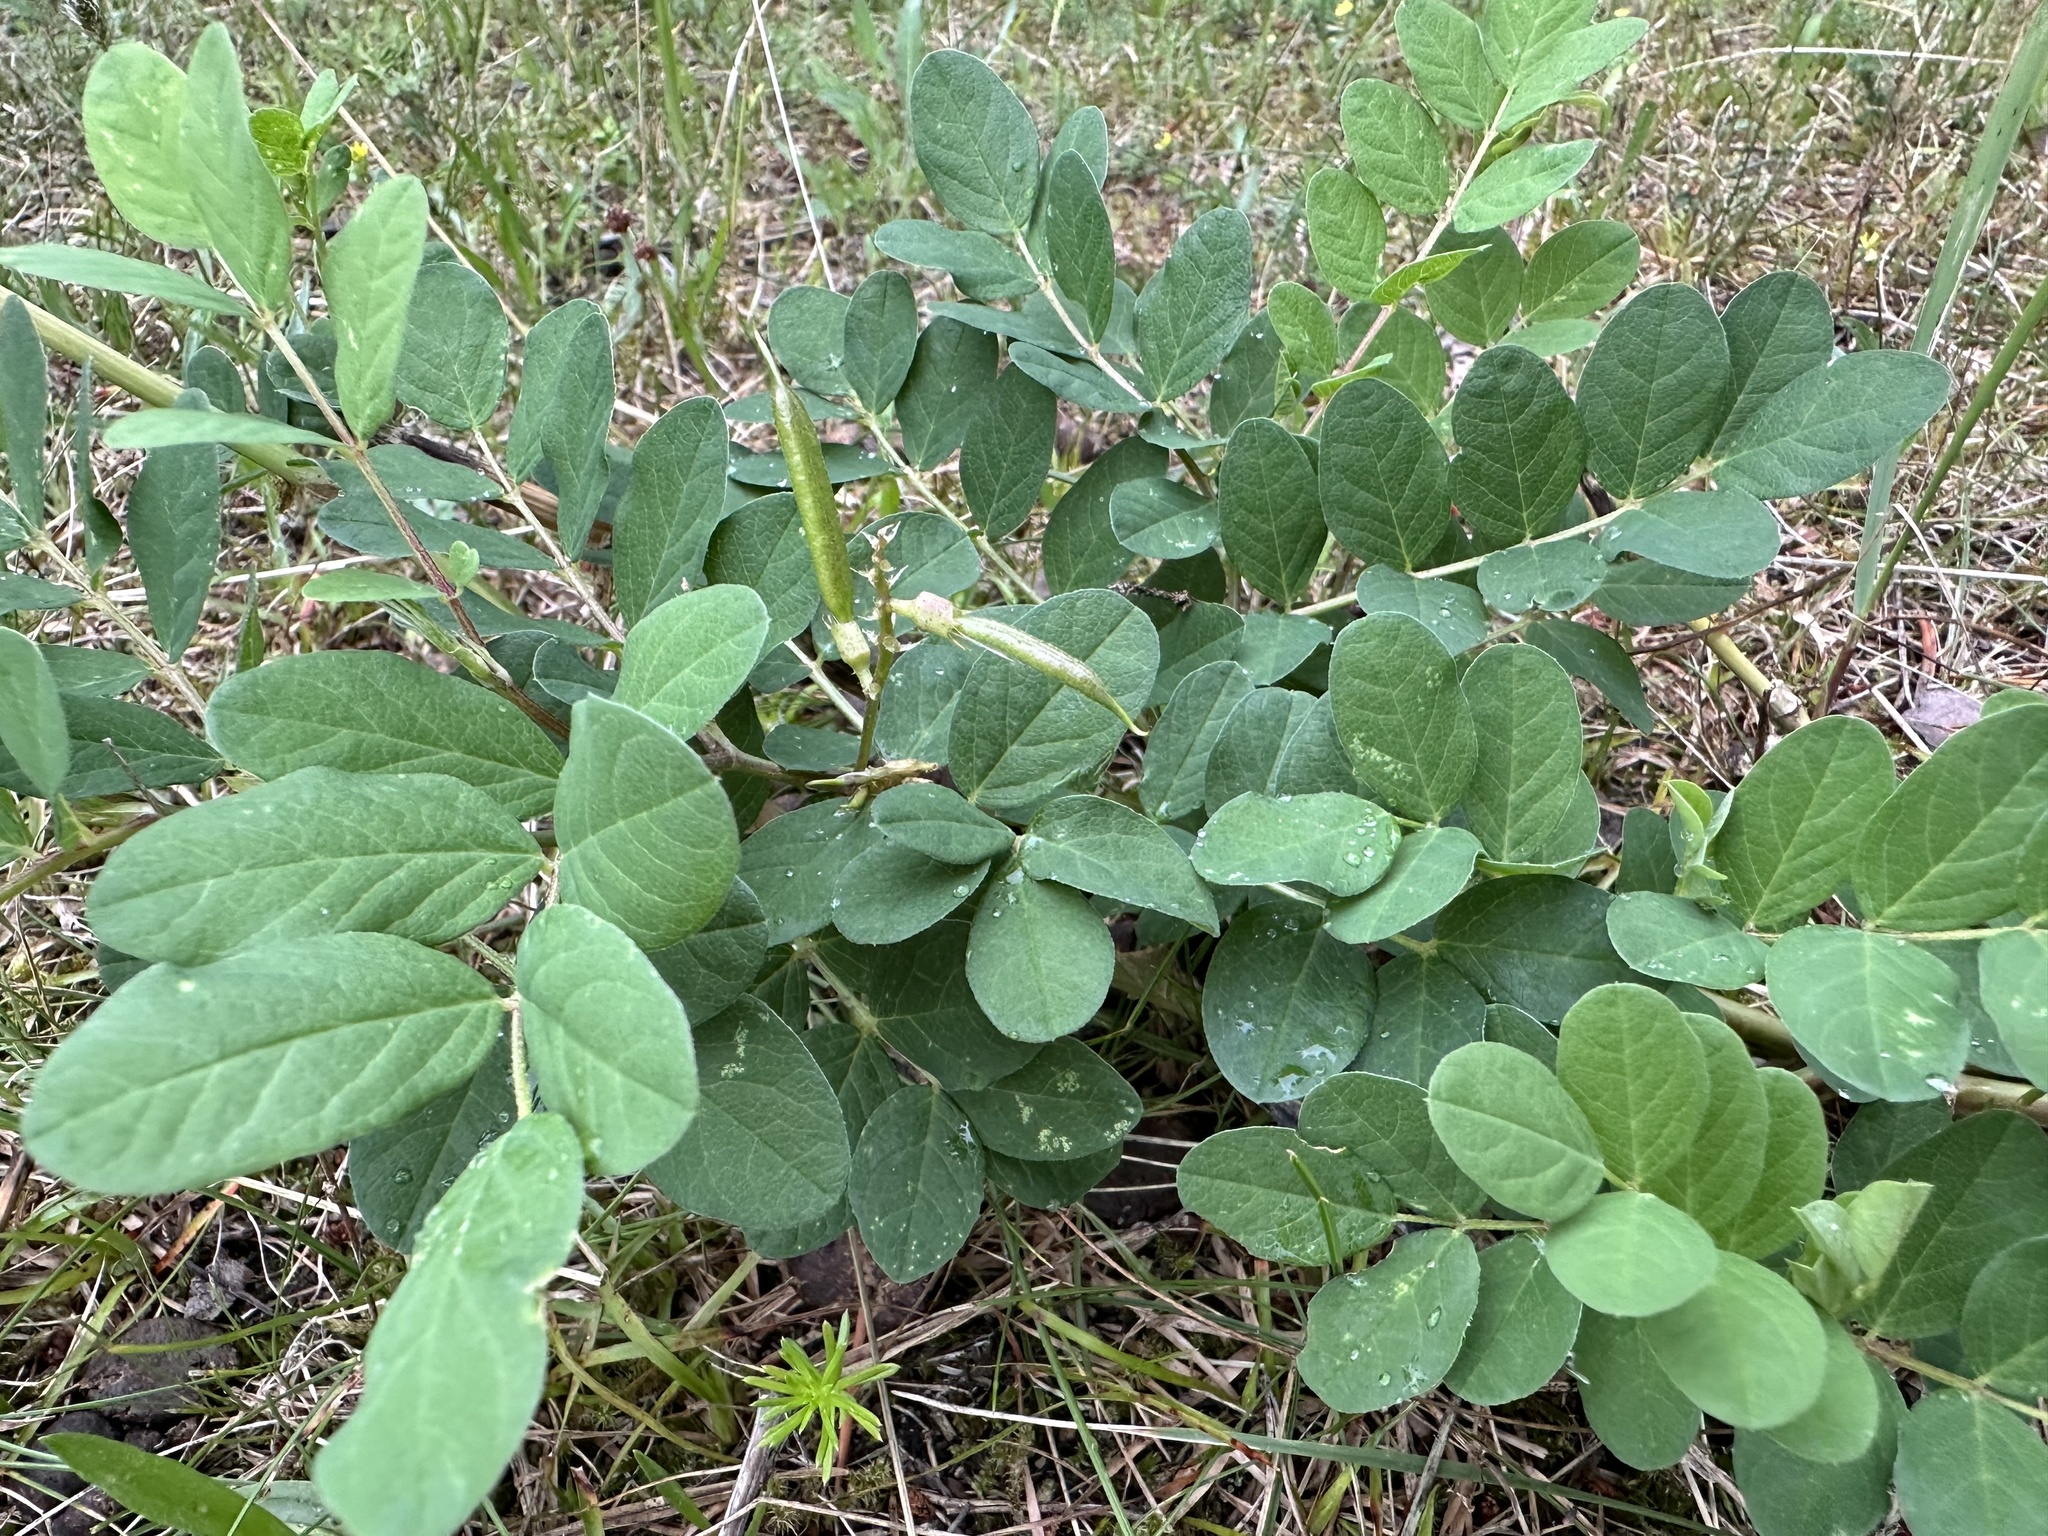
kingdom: Plantae
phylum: Tracheophyta
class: Magnoliopsida
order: Fabales
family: Fabaceae
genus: Astragalus
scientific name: Astragalus glycyphyllos
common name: Wild liquorice
